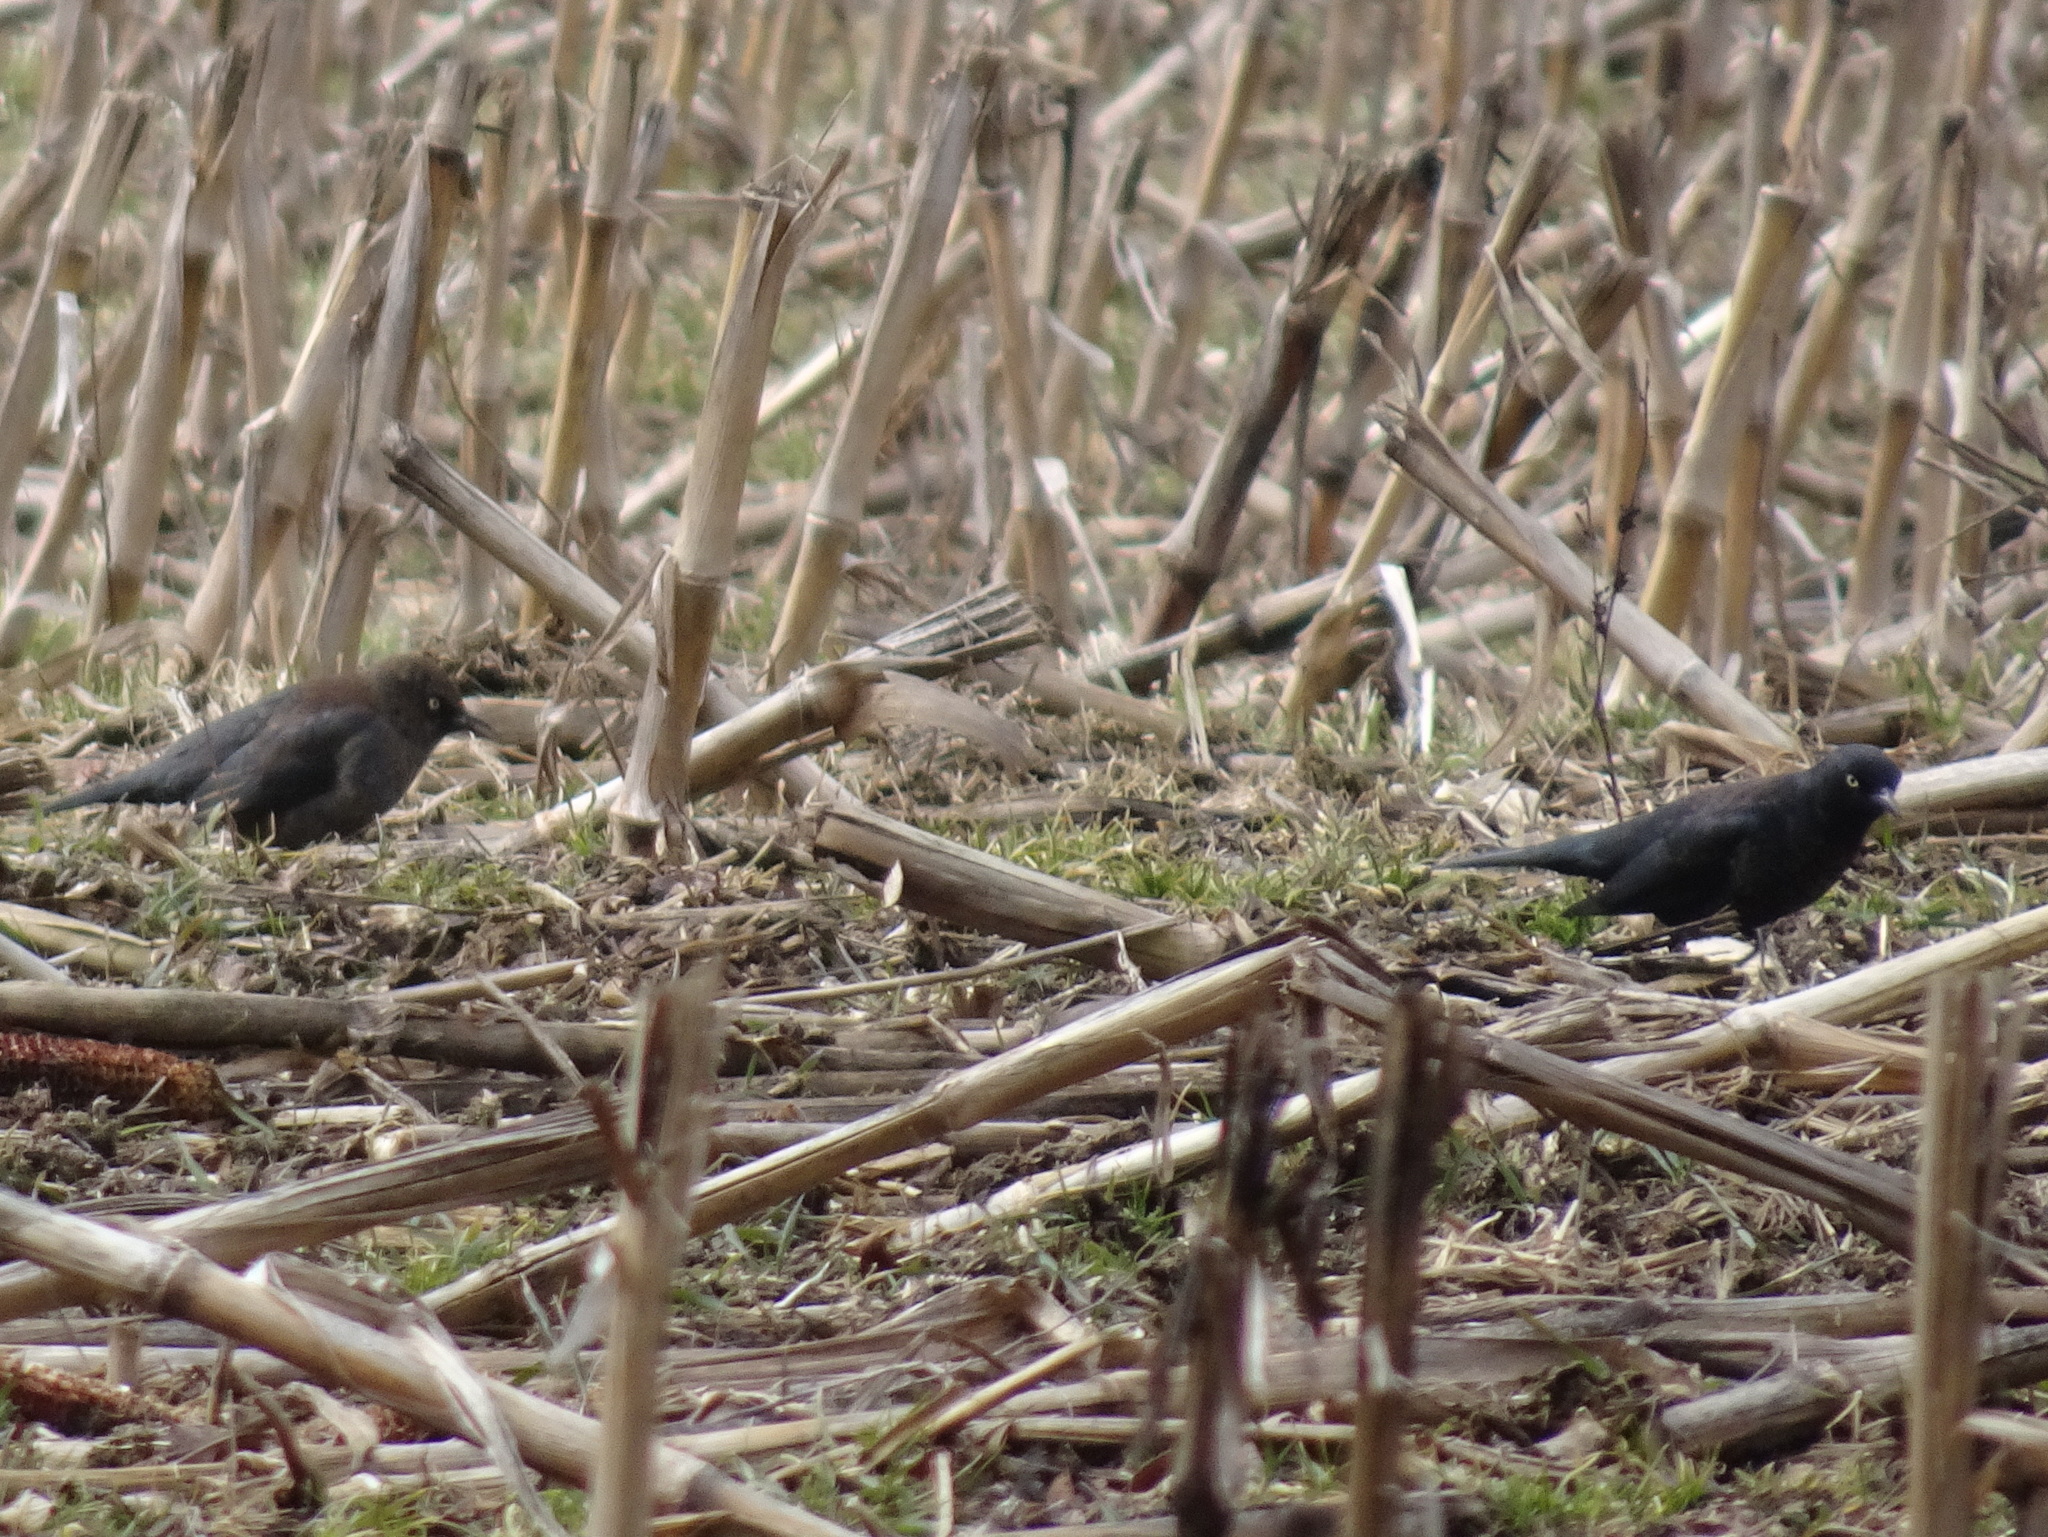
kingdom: Animalia
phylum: Chordata
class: Aves
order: Passeriformes
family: Icteridae
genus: Euphagus
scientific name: Euphagus carolinus
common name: Rusty blackbird
